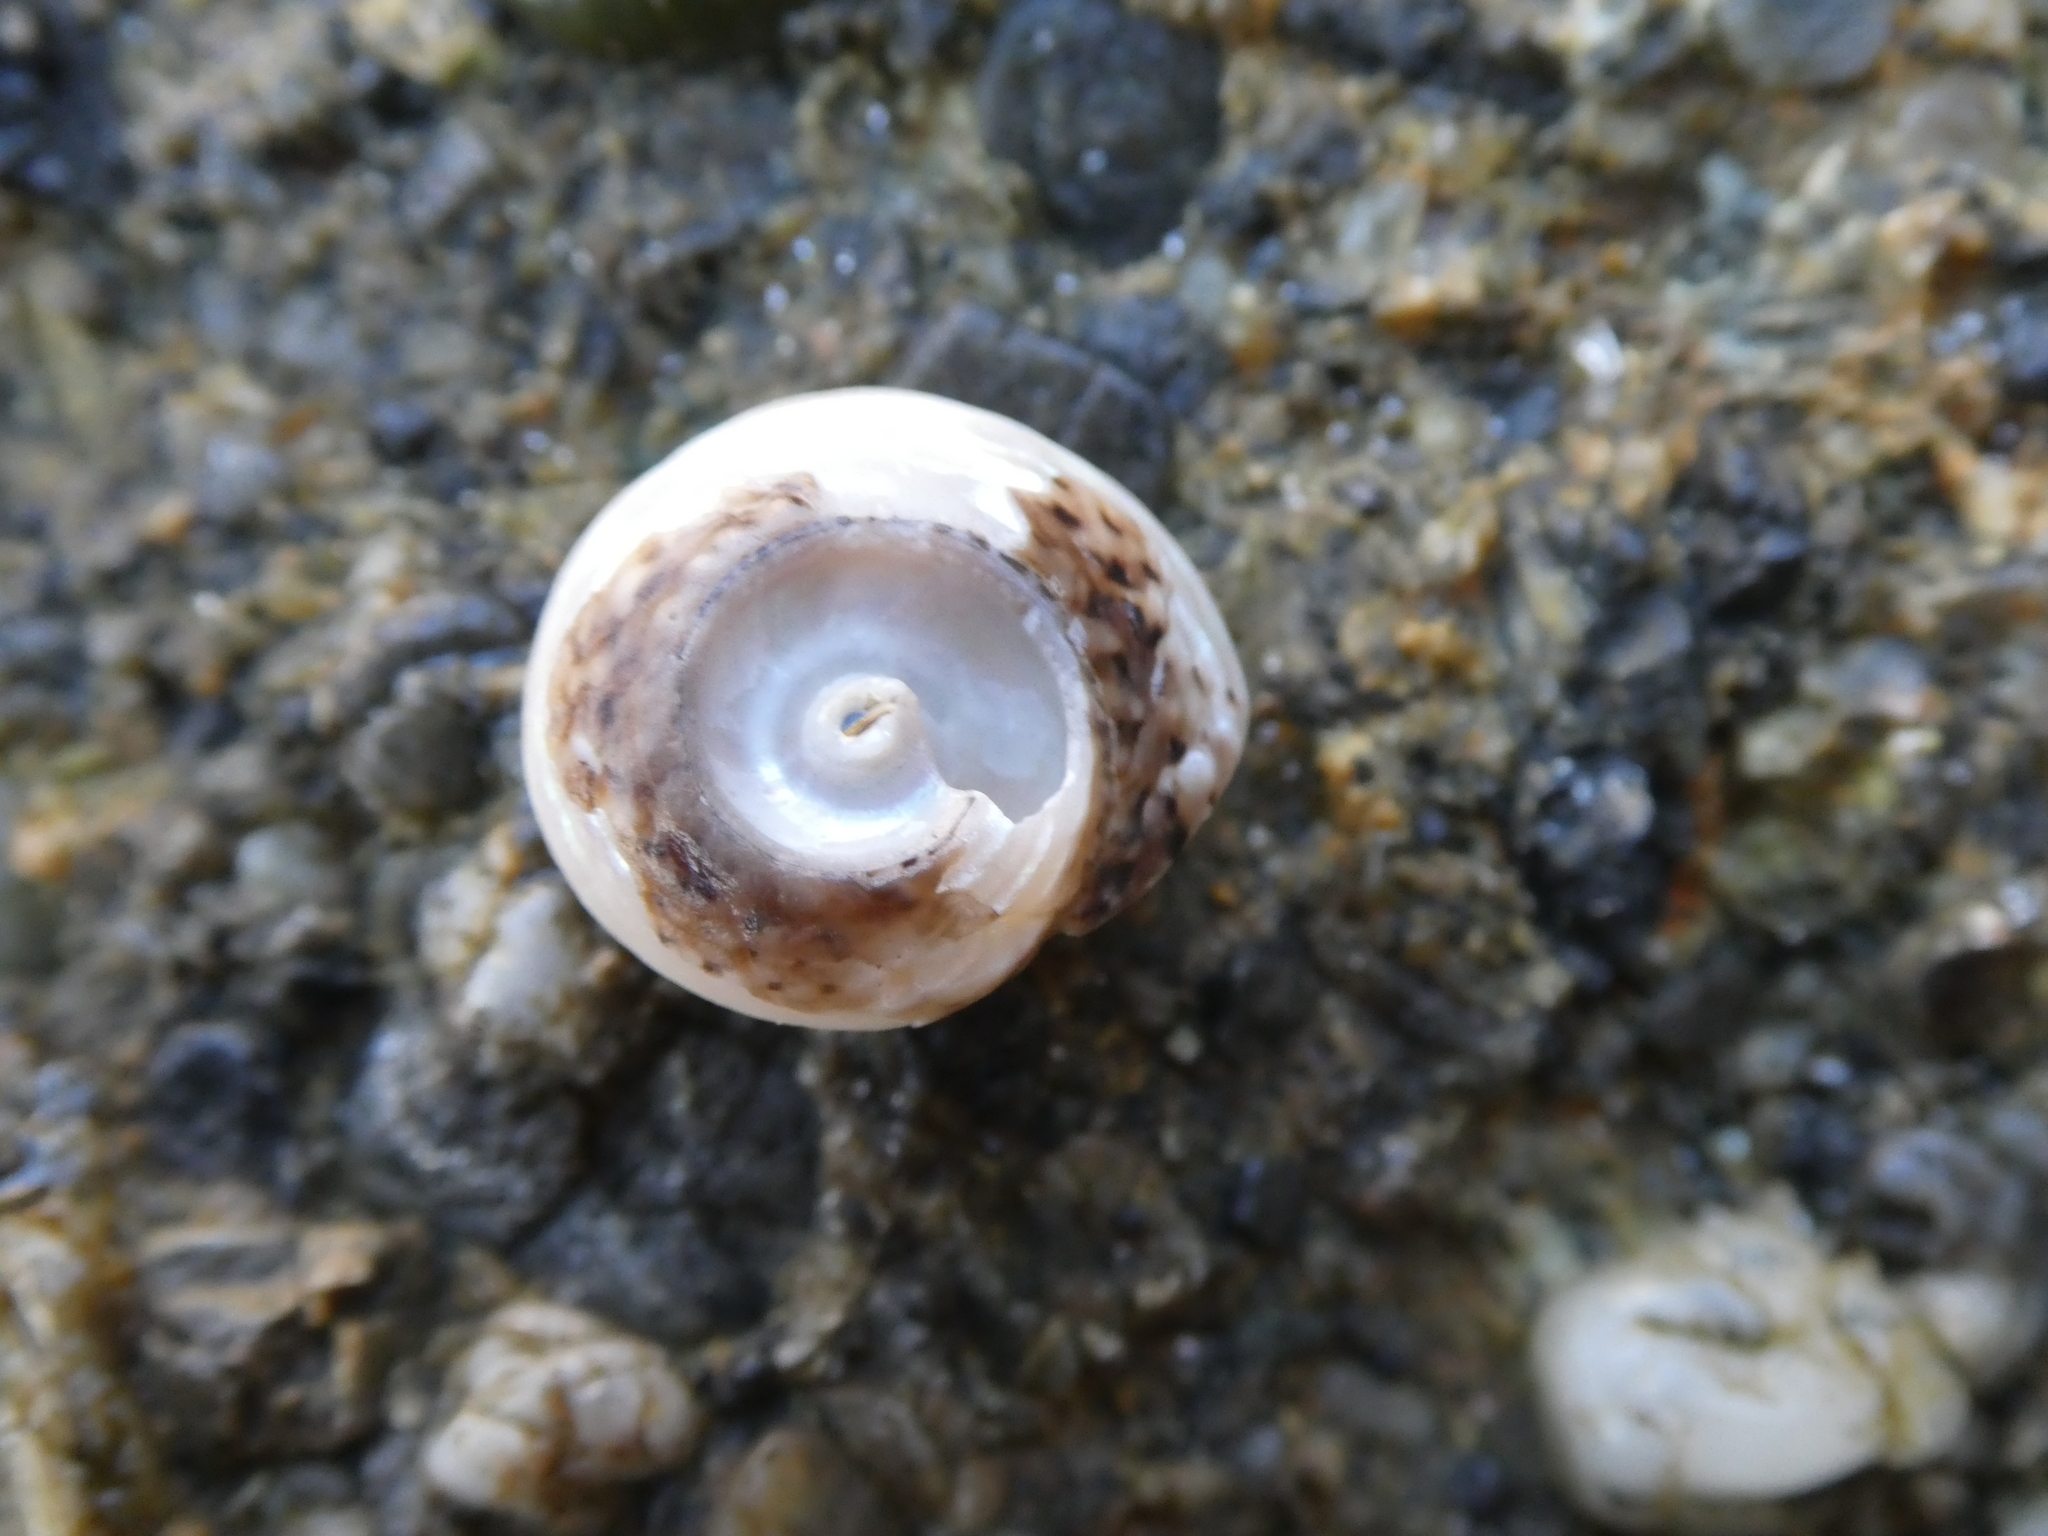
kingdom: Animalia
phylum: Mollusca
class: Gastropoda
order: Trochida
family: Tegulidae
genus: Tegula
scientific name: Tegula eiseni
